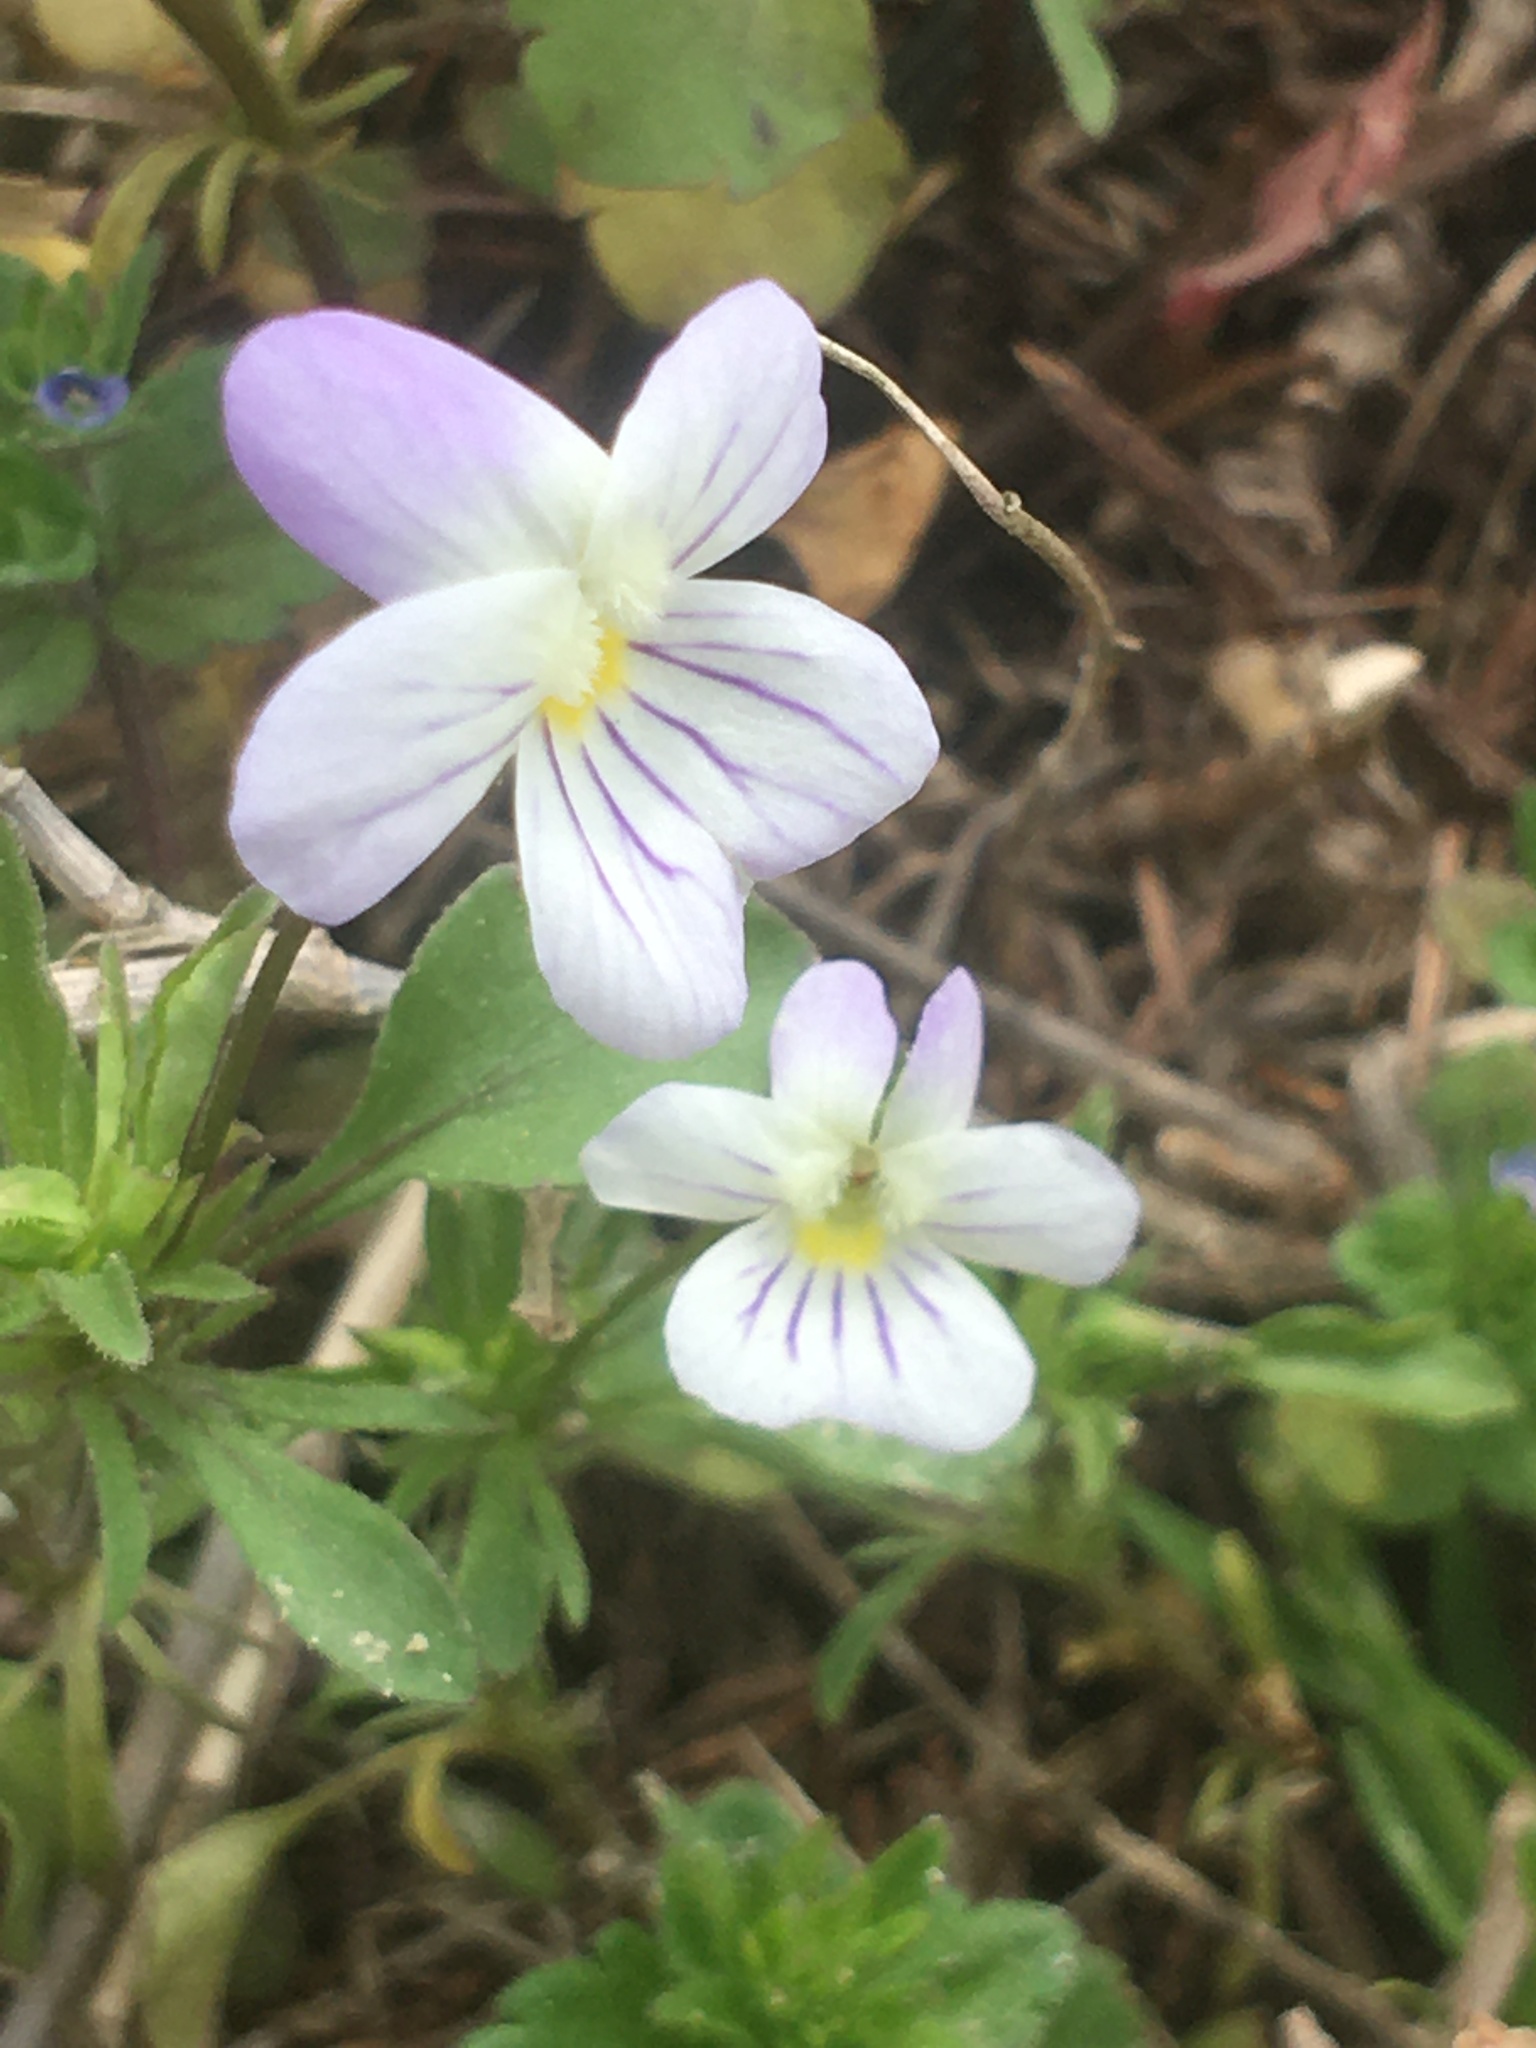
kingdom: Plantae
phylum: Tracheophyta
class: Magnoliopsida
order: Malpighiales
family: Violaceae
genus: Viola
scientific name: Viola rafinesquei
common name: American field pansy
